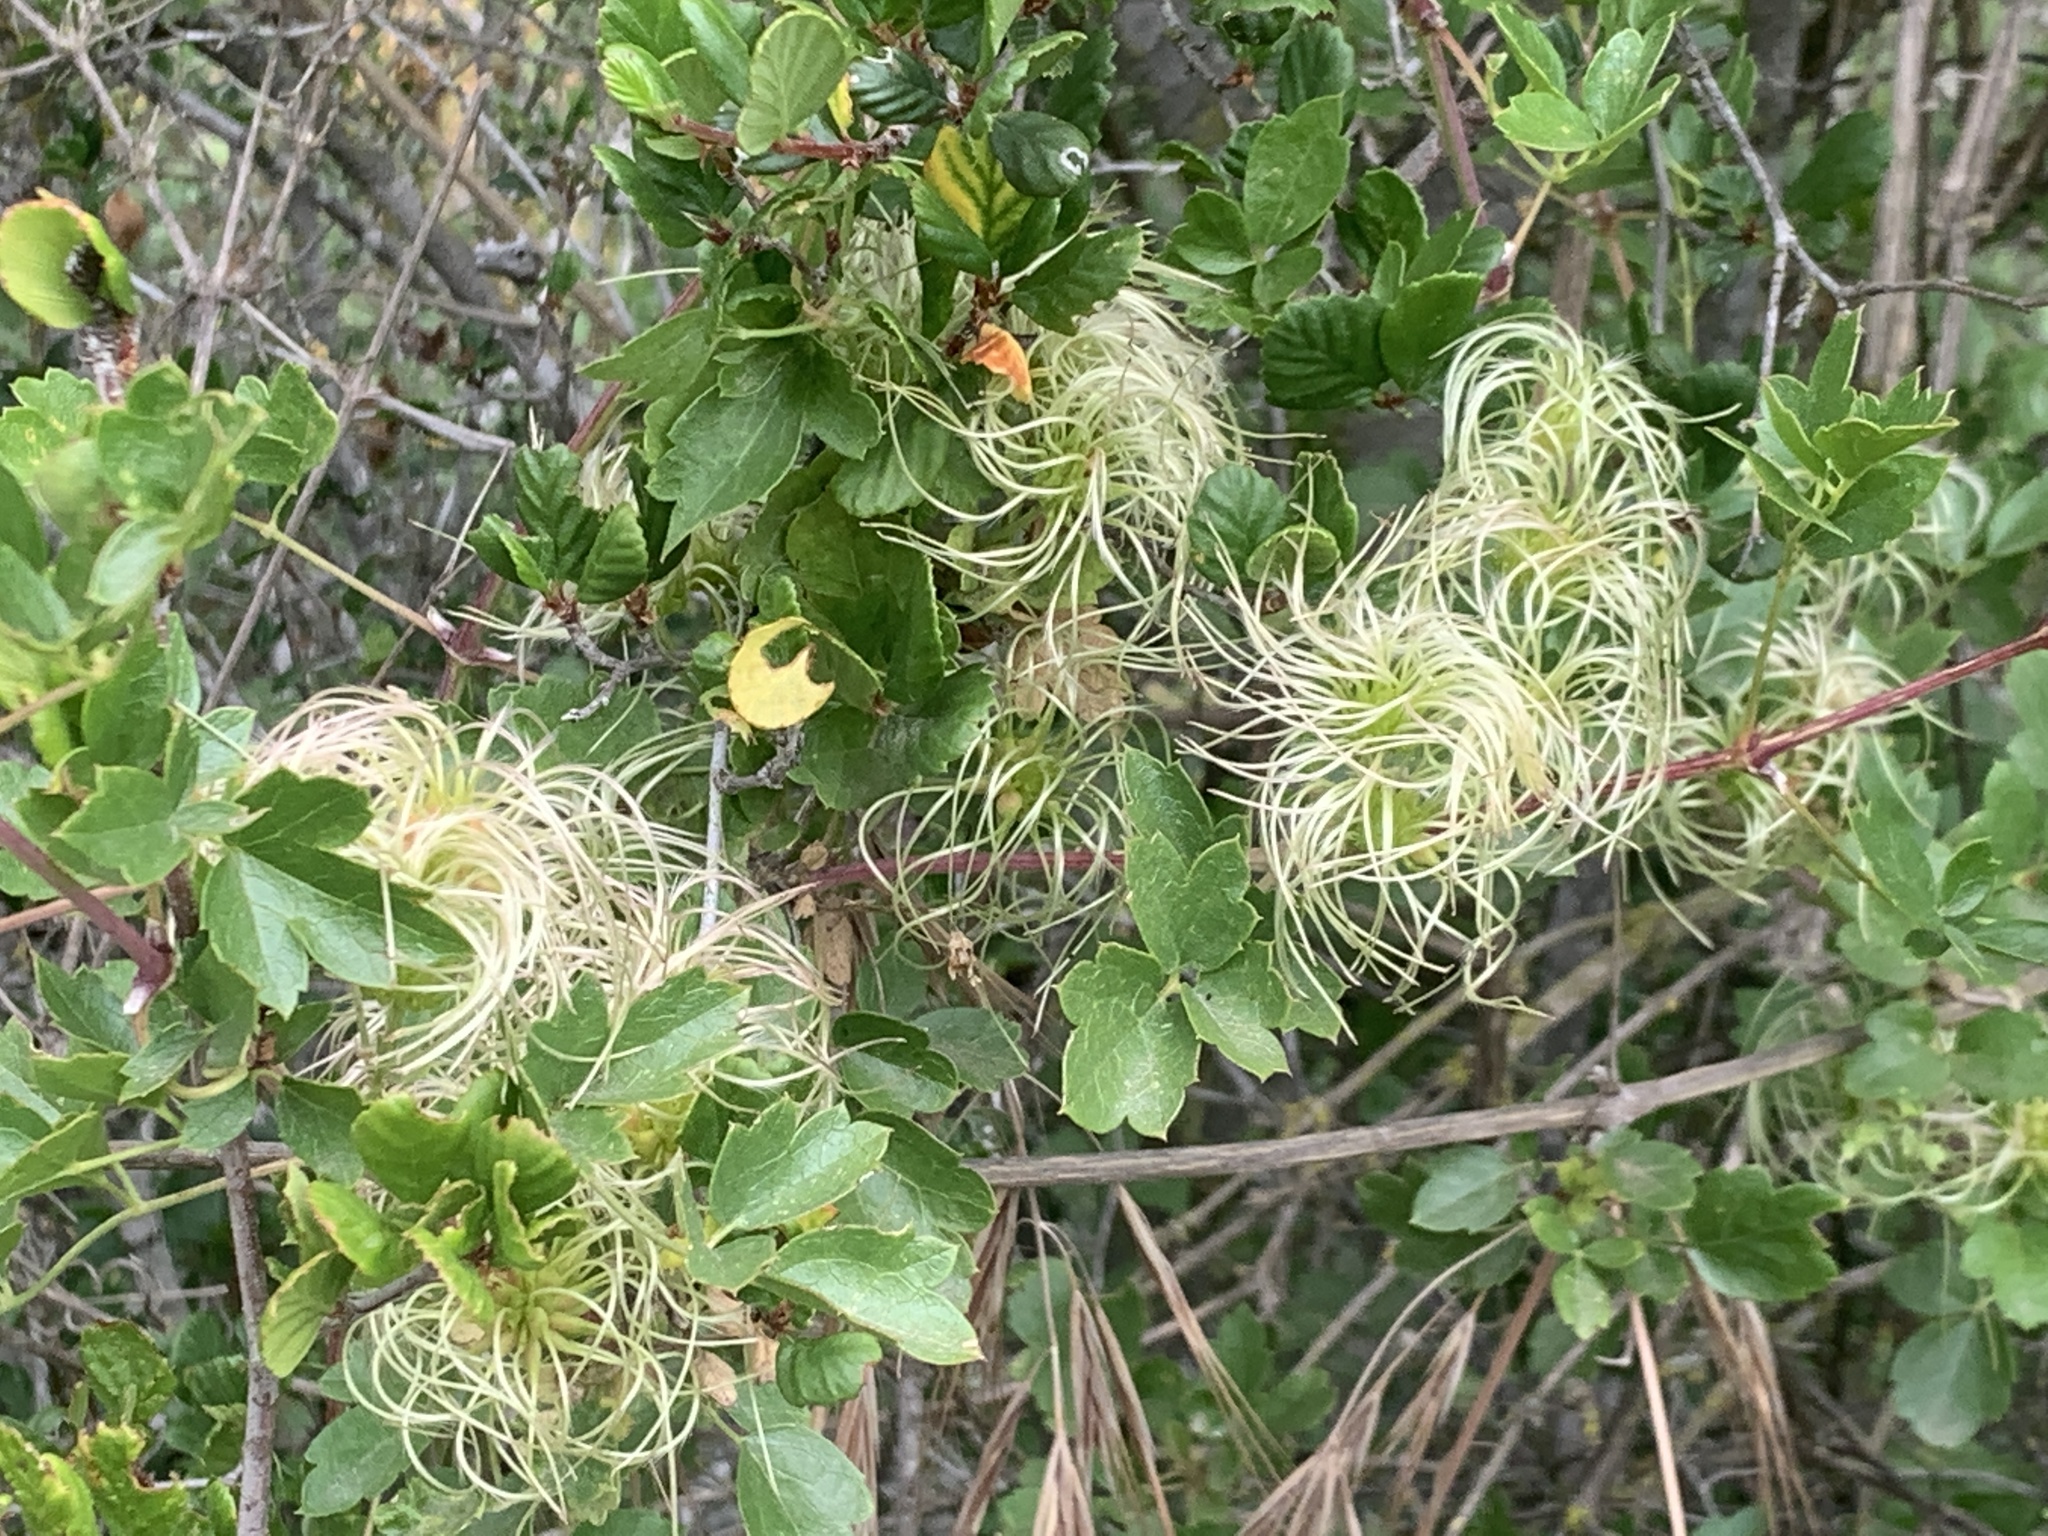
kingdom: Plantae
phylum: Tracheophyta
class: Magnoliopsida
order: Ranunculales
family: Ranunculaceae
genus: Clematis
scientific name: Clematis pauciflora
